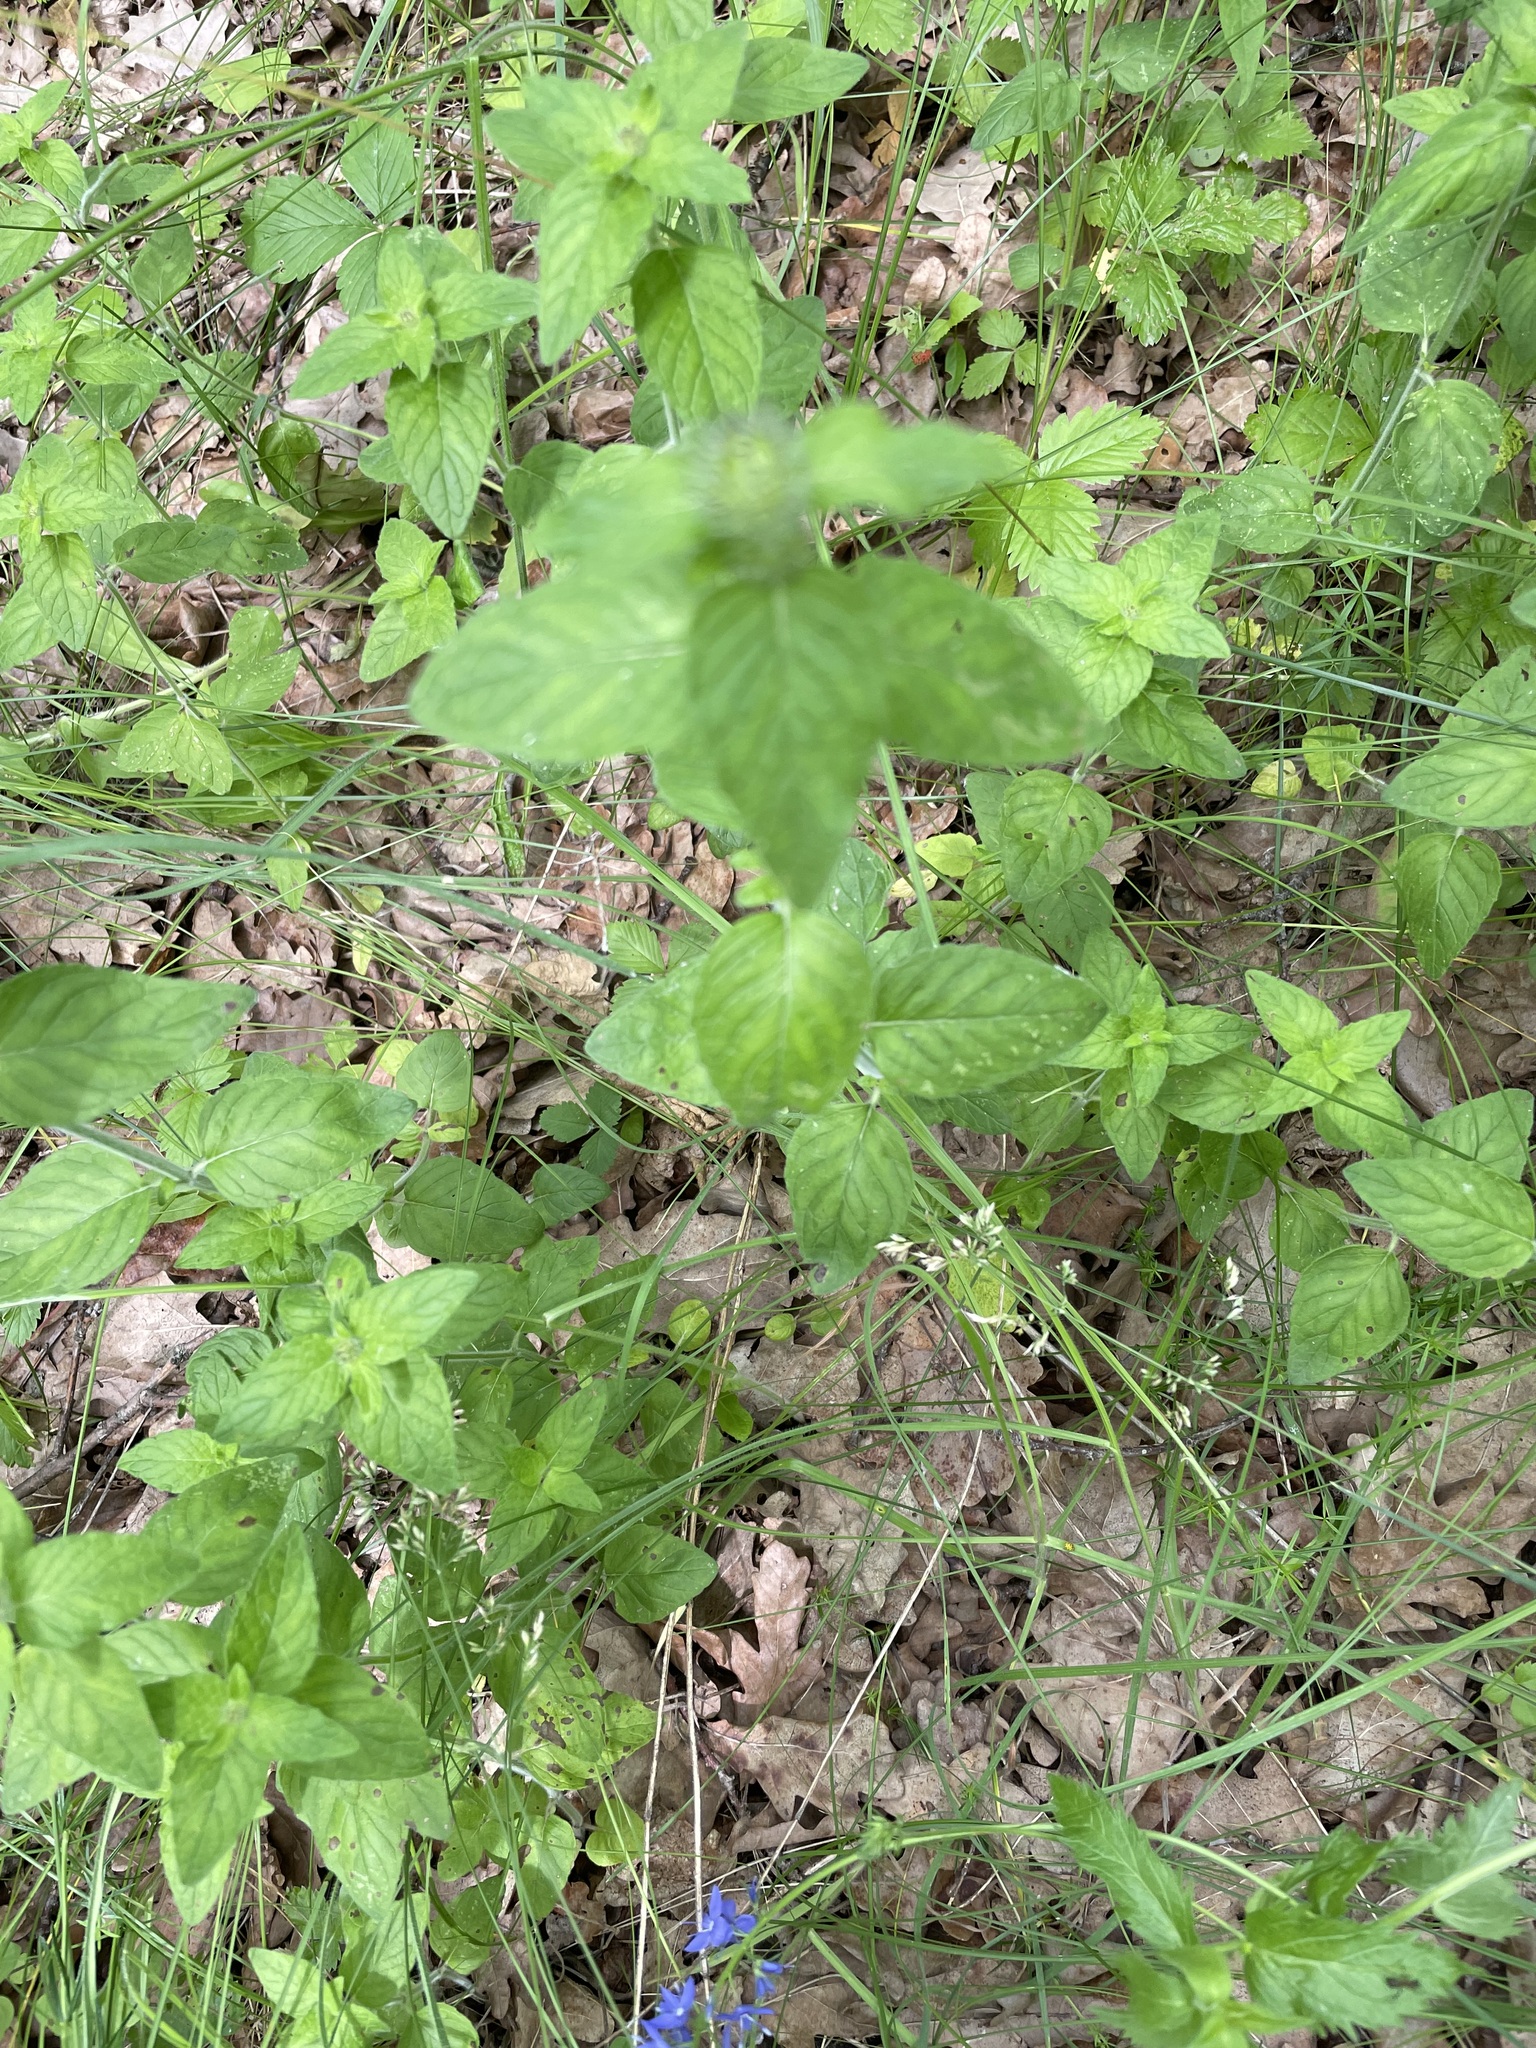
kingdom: Plantae
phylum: Tracheophyta
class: Magnoliopsida
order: Lamiales
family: Lamiaceae
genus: Clinopodium
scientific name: Clinopodium vulgare
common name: Wild basil
